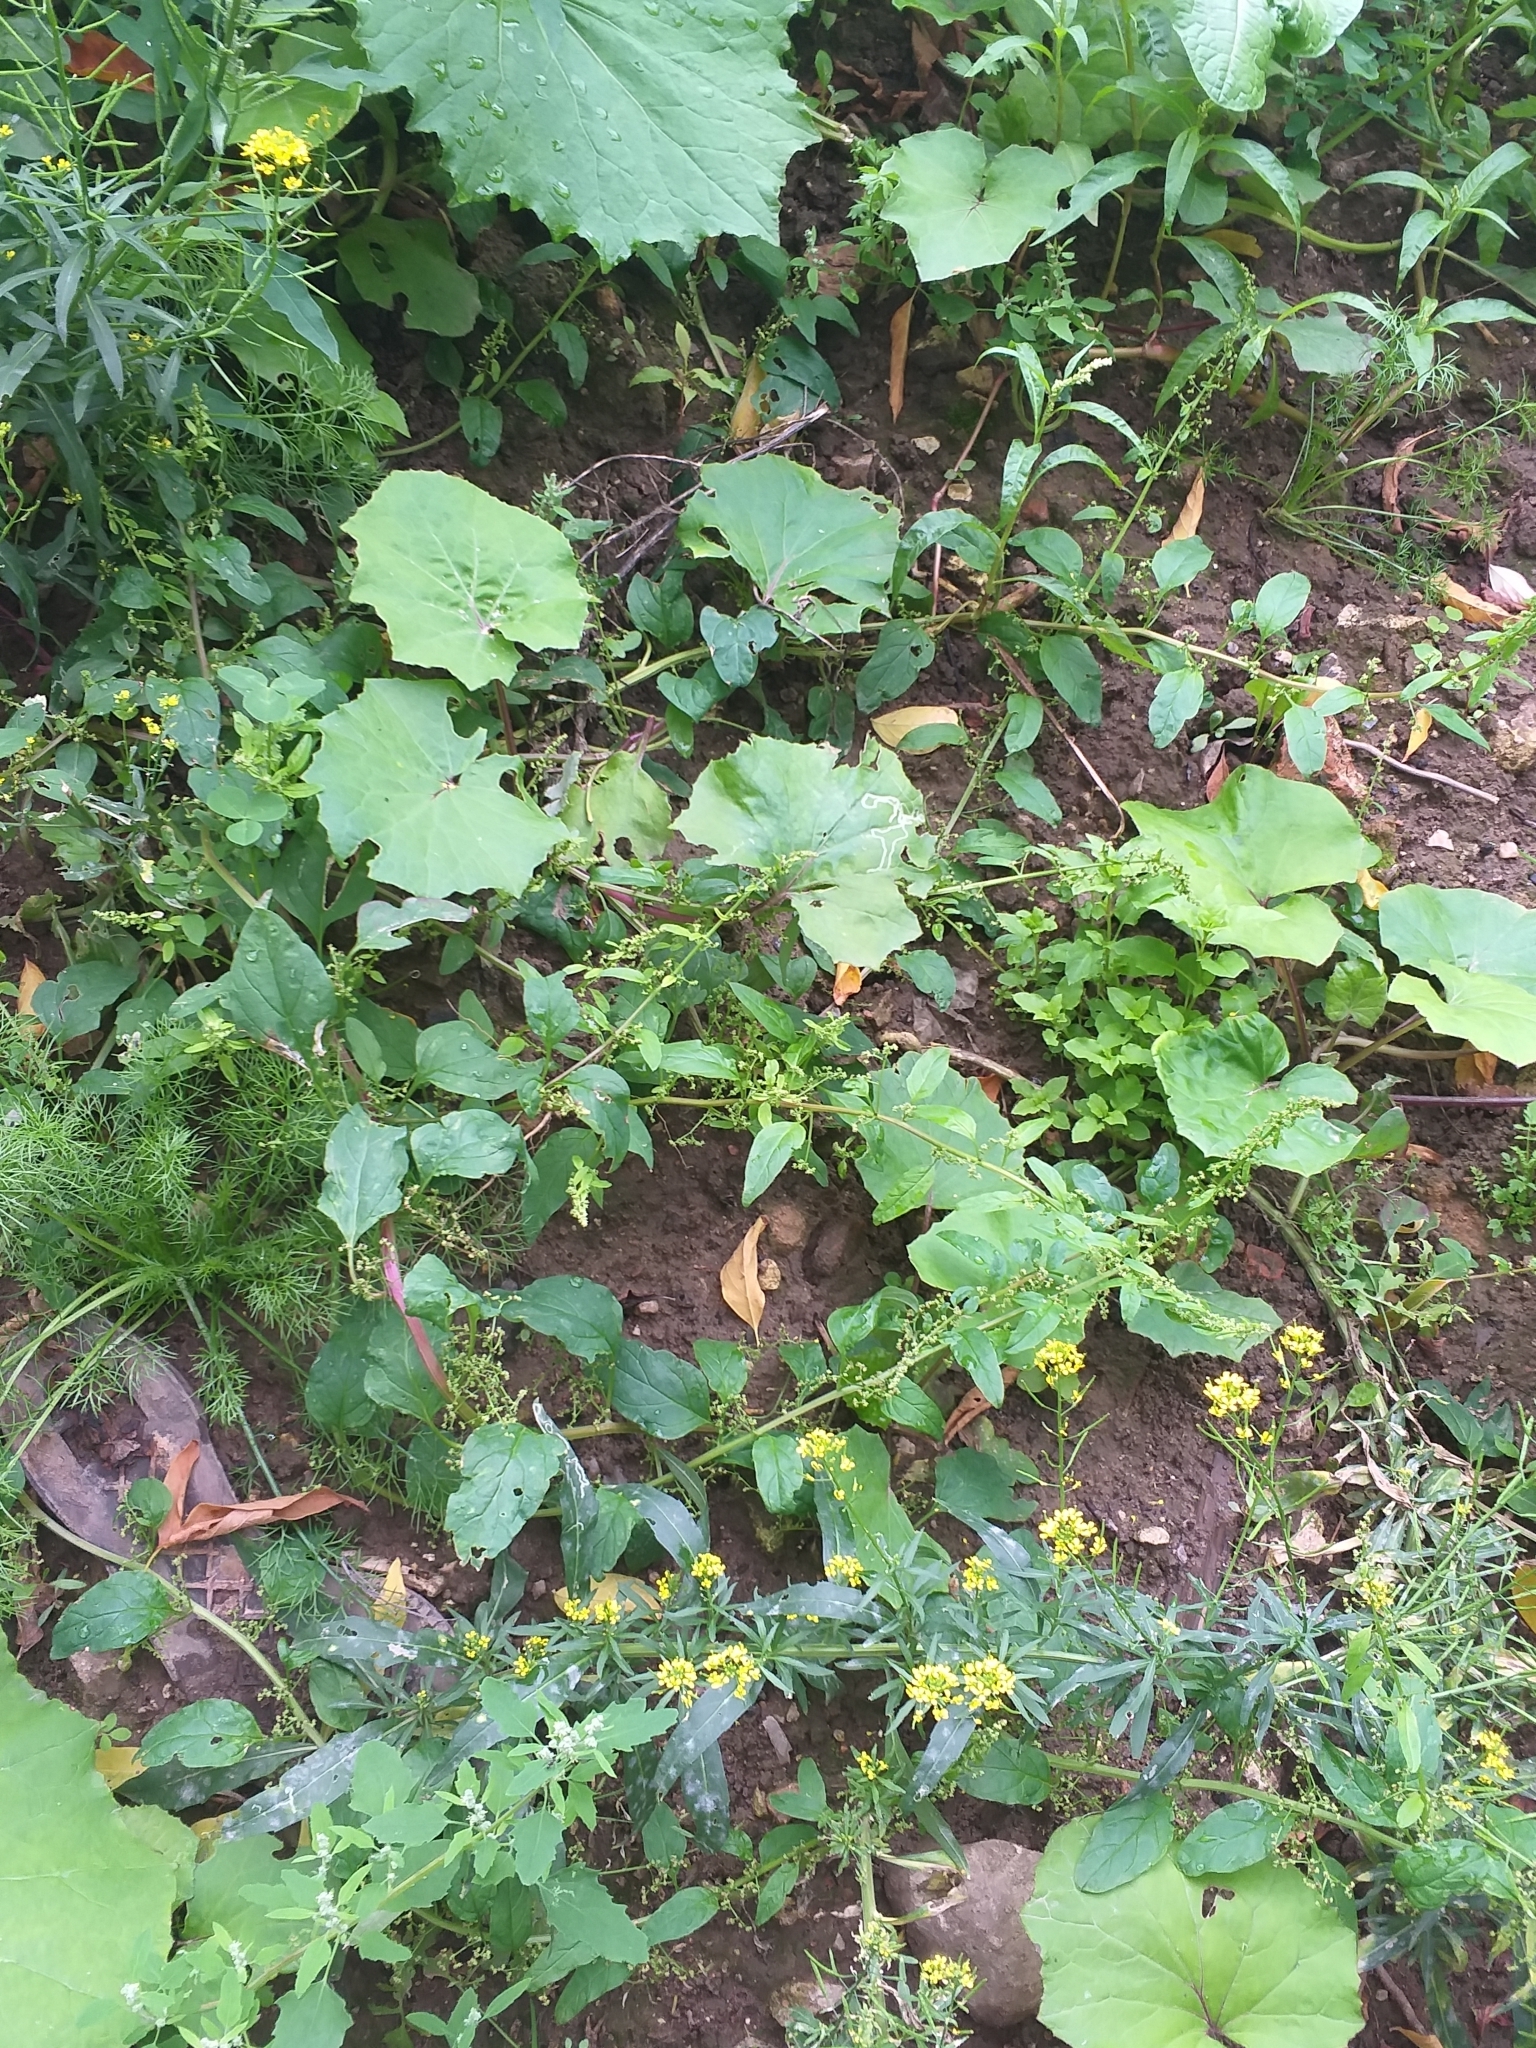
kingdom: Plantae
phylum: Tracheophyta
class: Magnoliopsida
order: Caryophyllales
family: Amaranthaceae
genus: Lipandra
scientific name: Lipandra polysperma
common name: Many-seed goosefoot
